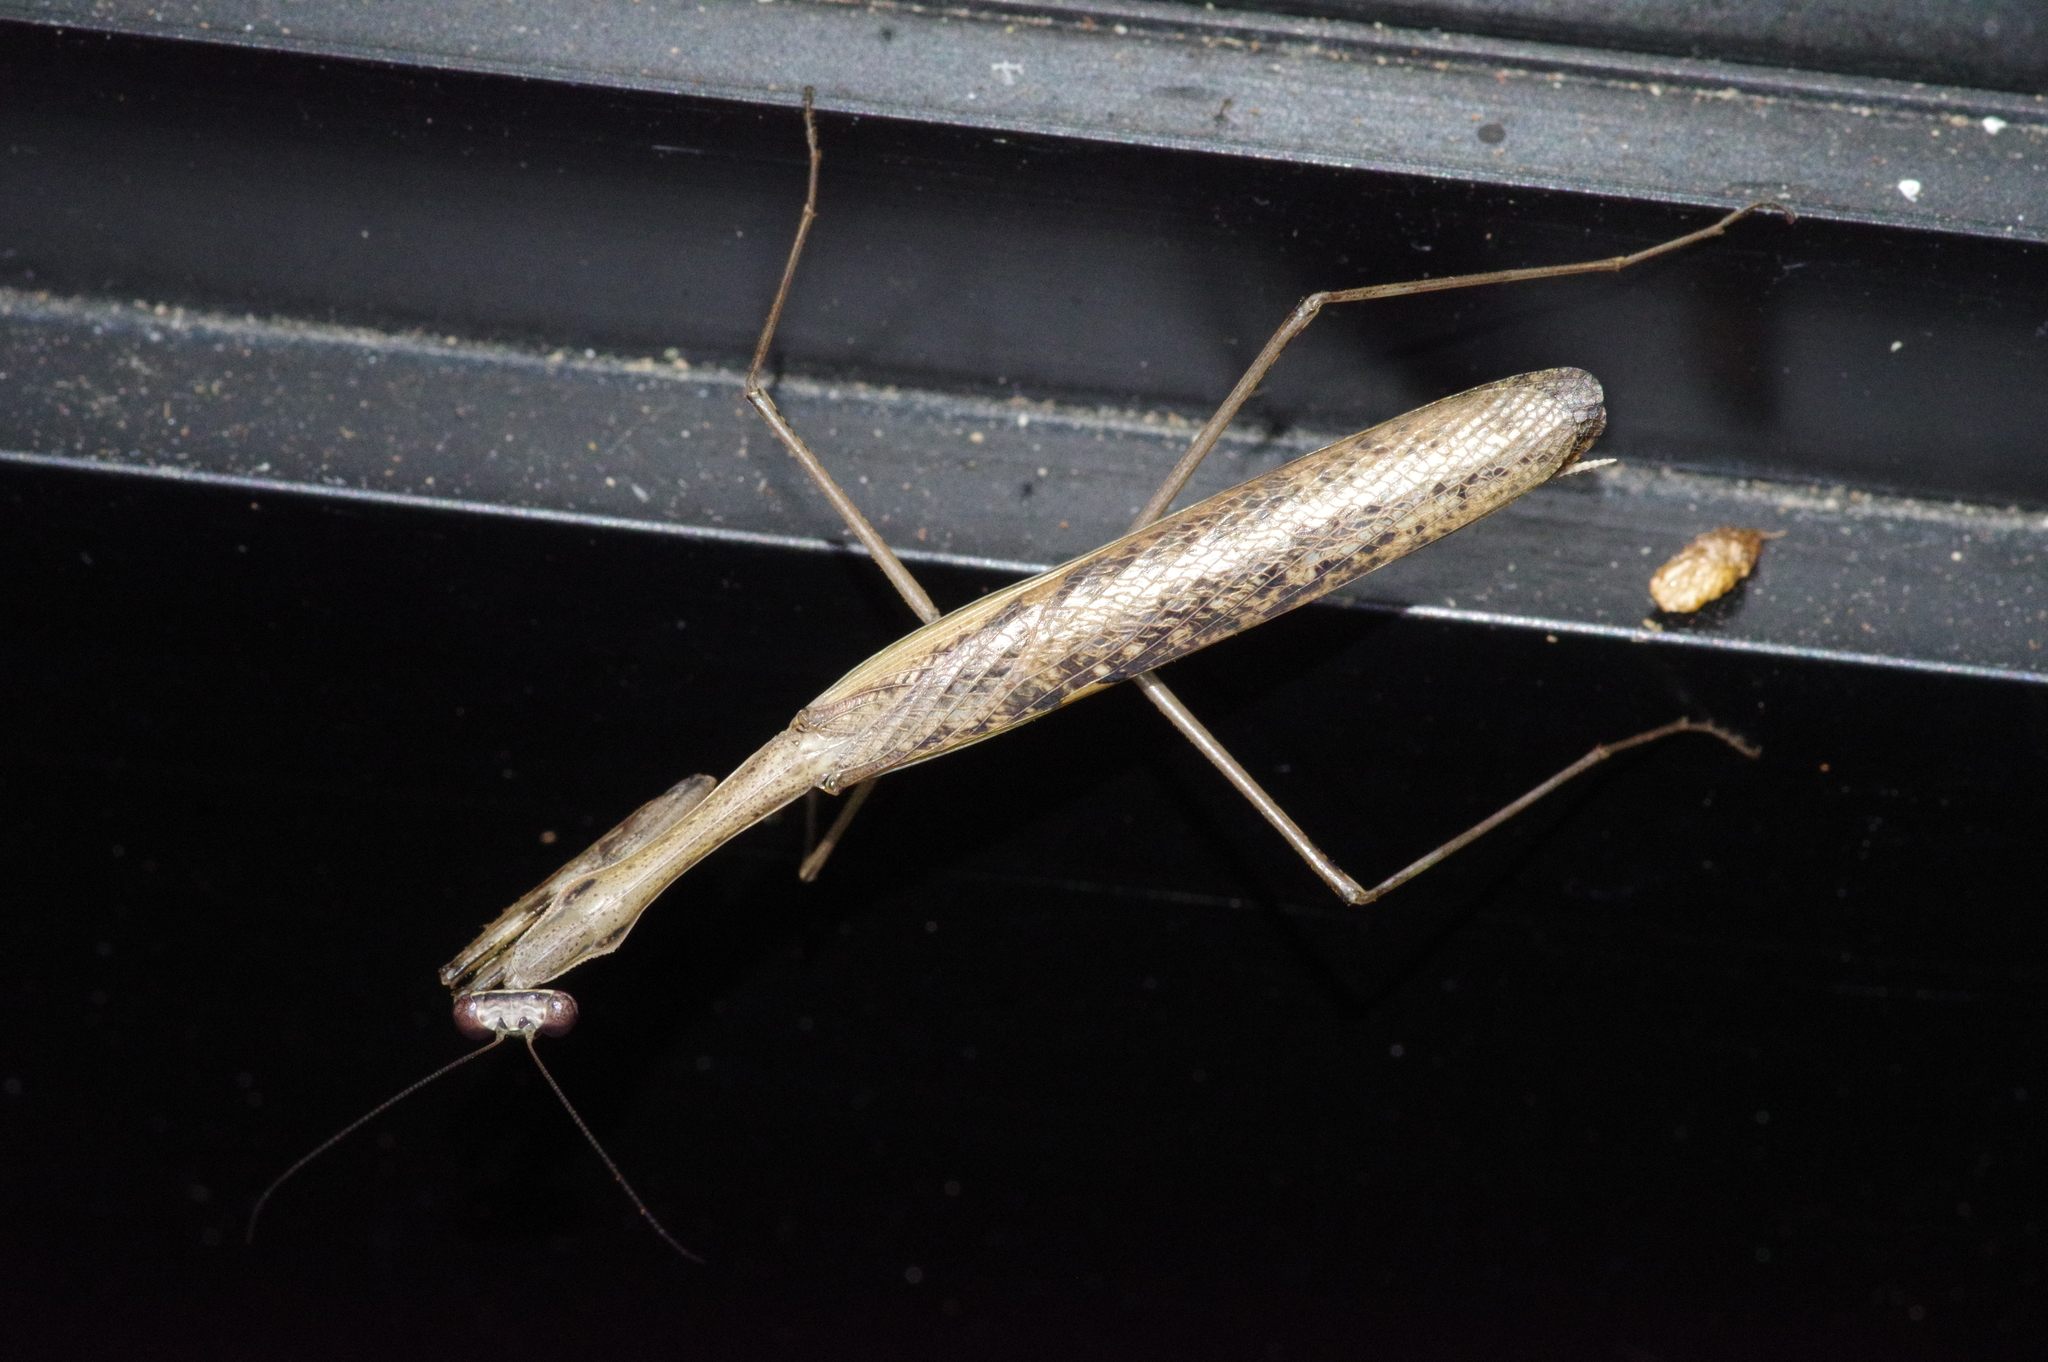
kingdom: Animalia
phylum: Arthropoda
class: Insecta
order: Mantodea
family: Mantidae
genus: Statilia
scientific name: Statilia nemoralis
